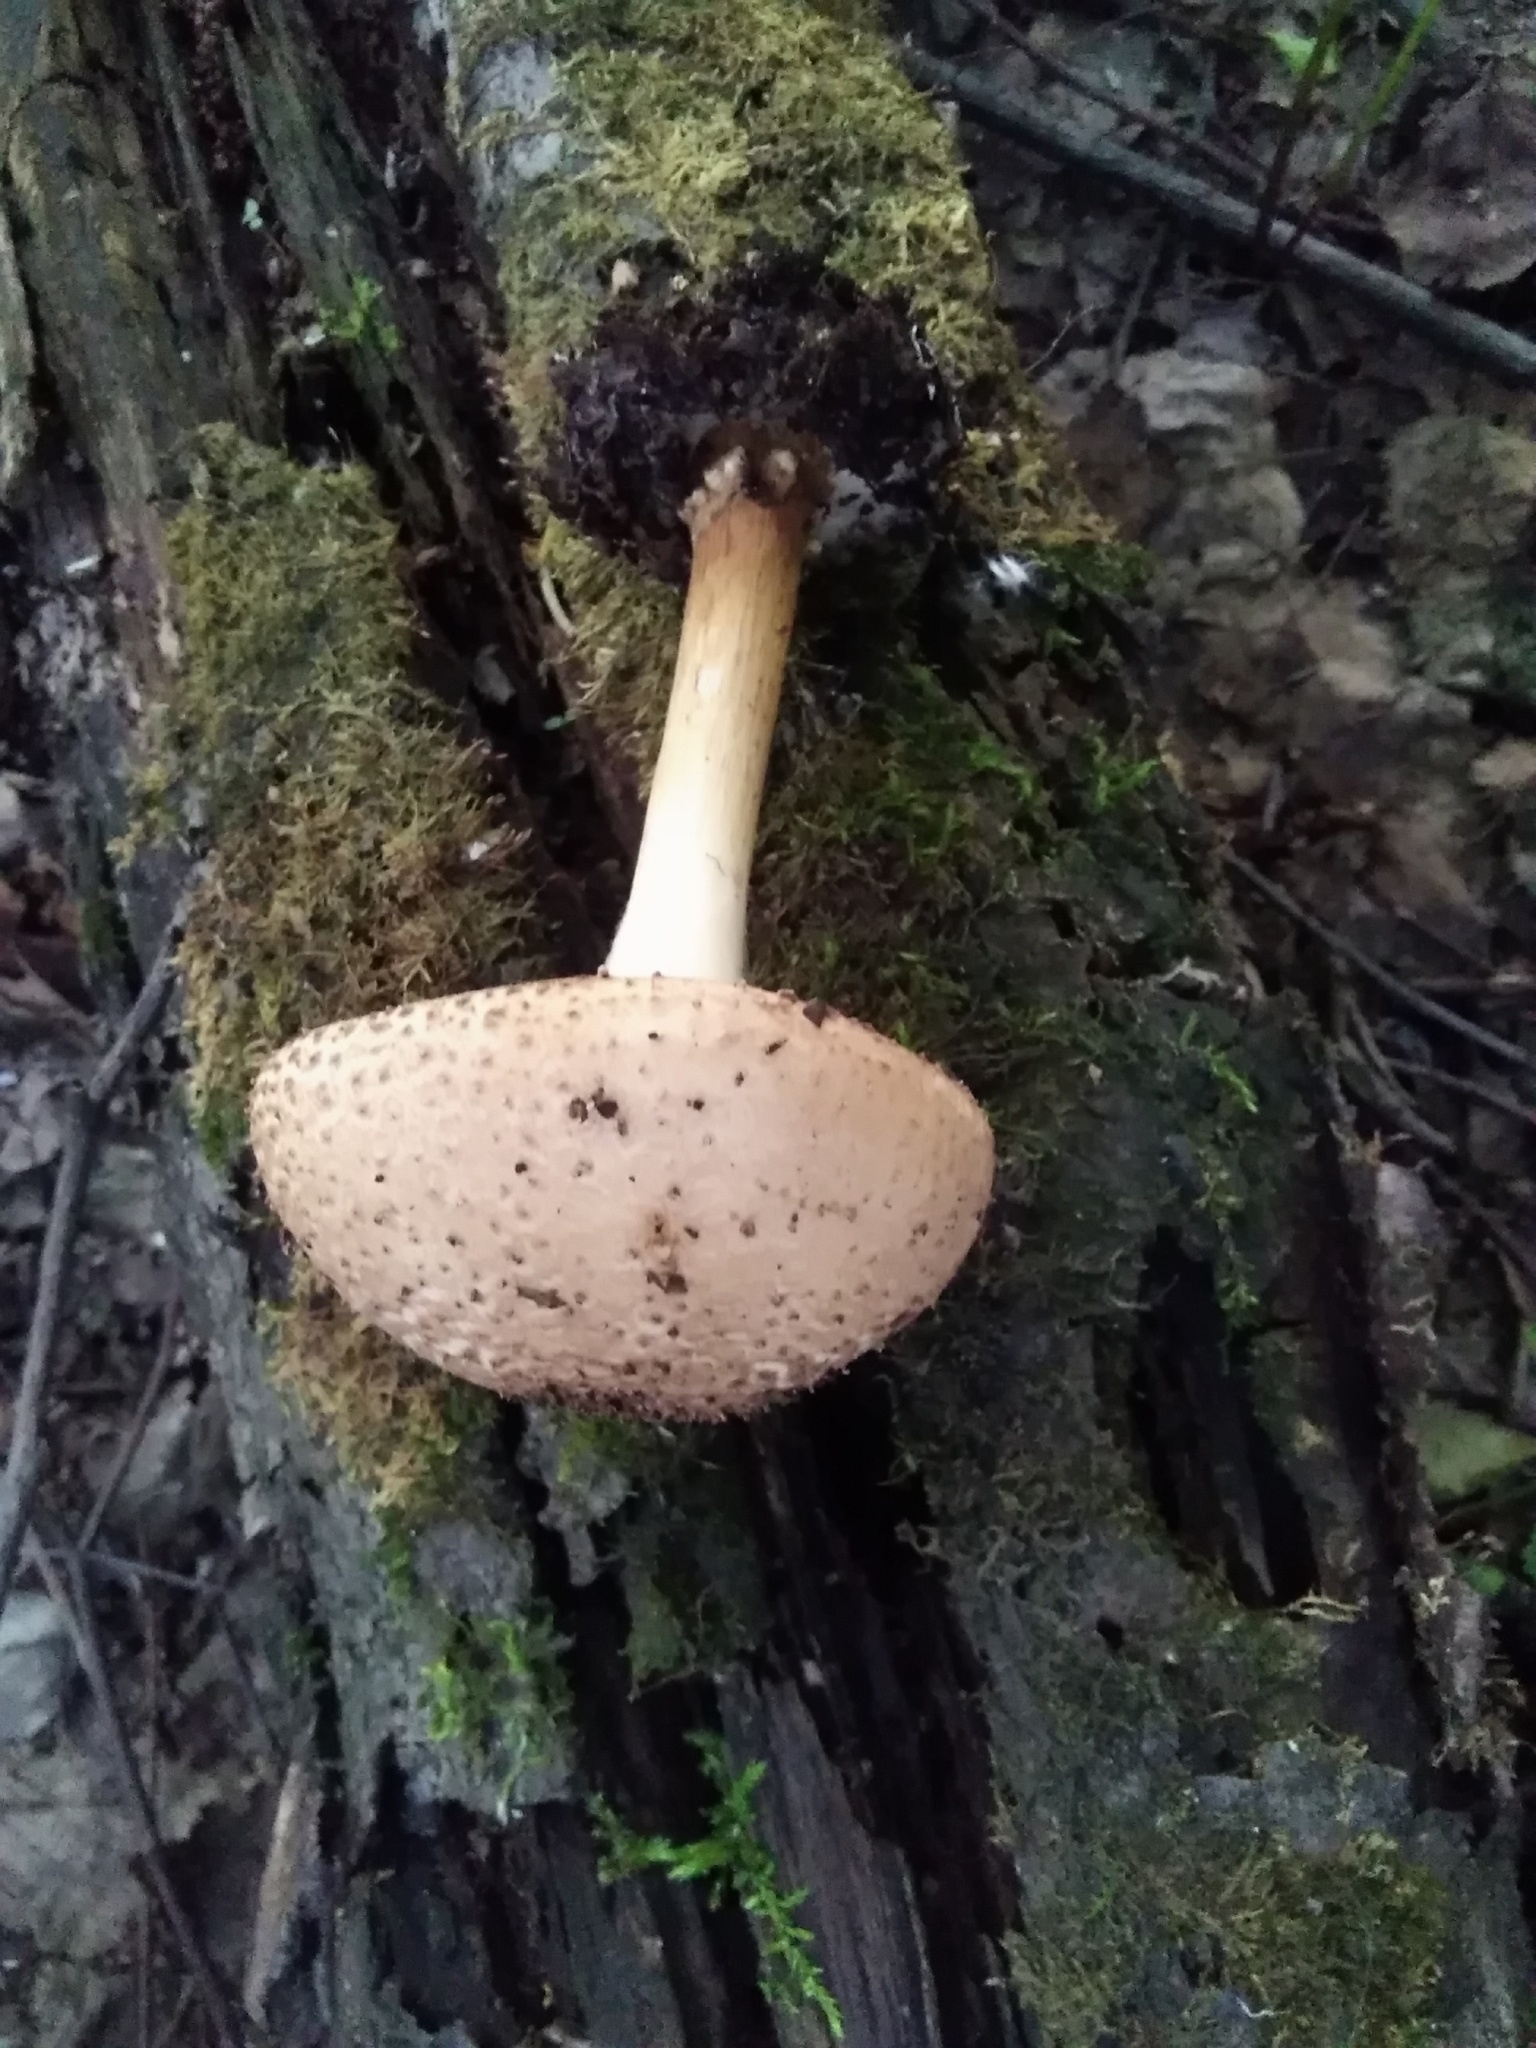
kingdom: Fungi
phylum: Basidiomycota
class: Agaricomycetes
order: Agaricales
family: Agaricaceae
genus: Echinoderma
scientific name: Echinoderma asperum
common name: Freckled dapperling
